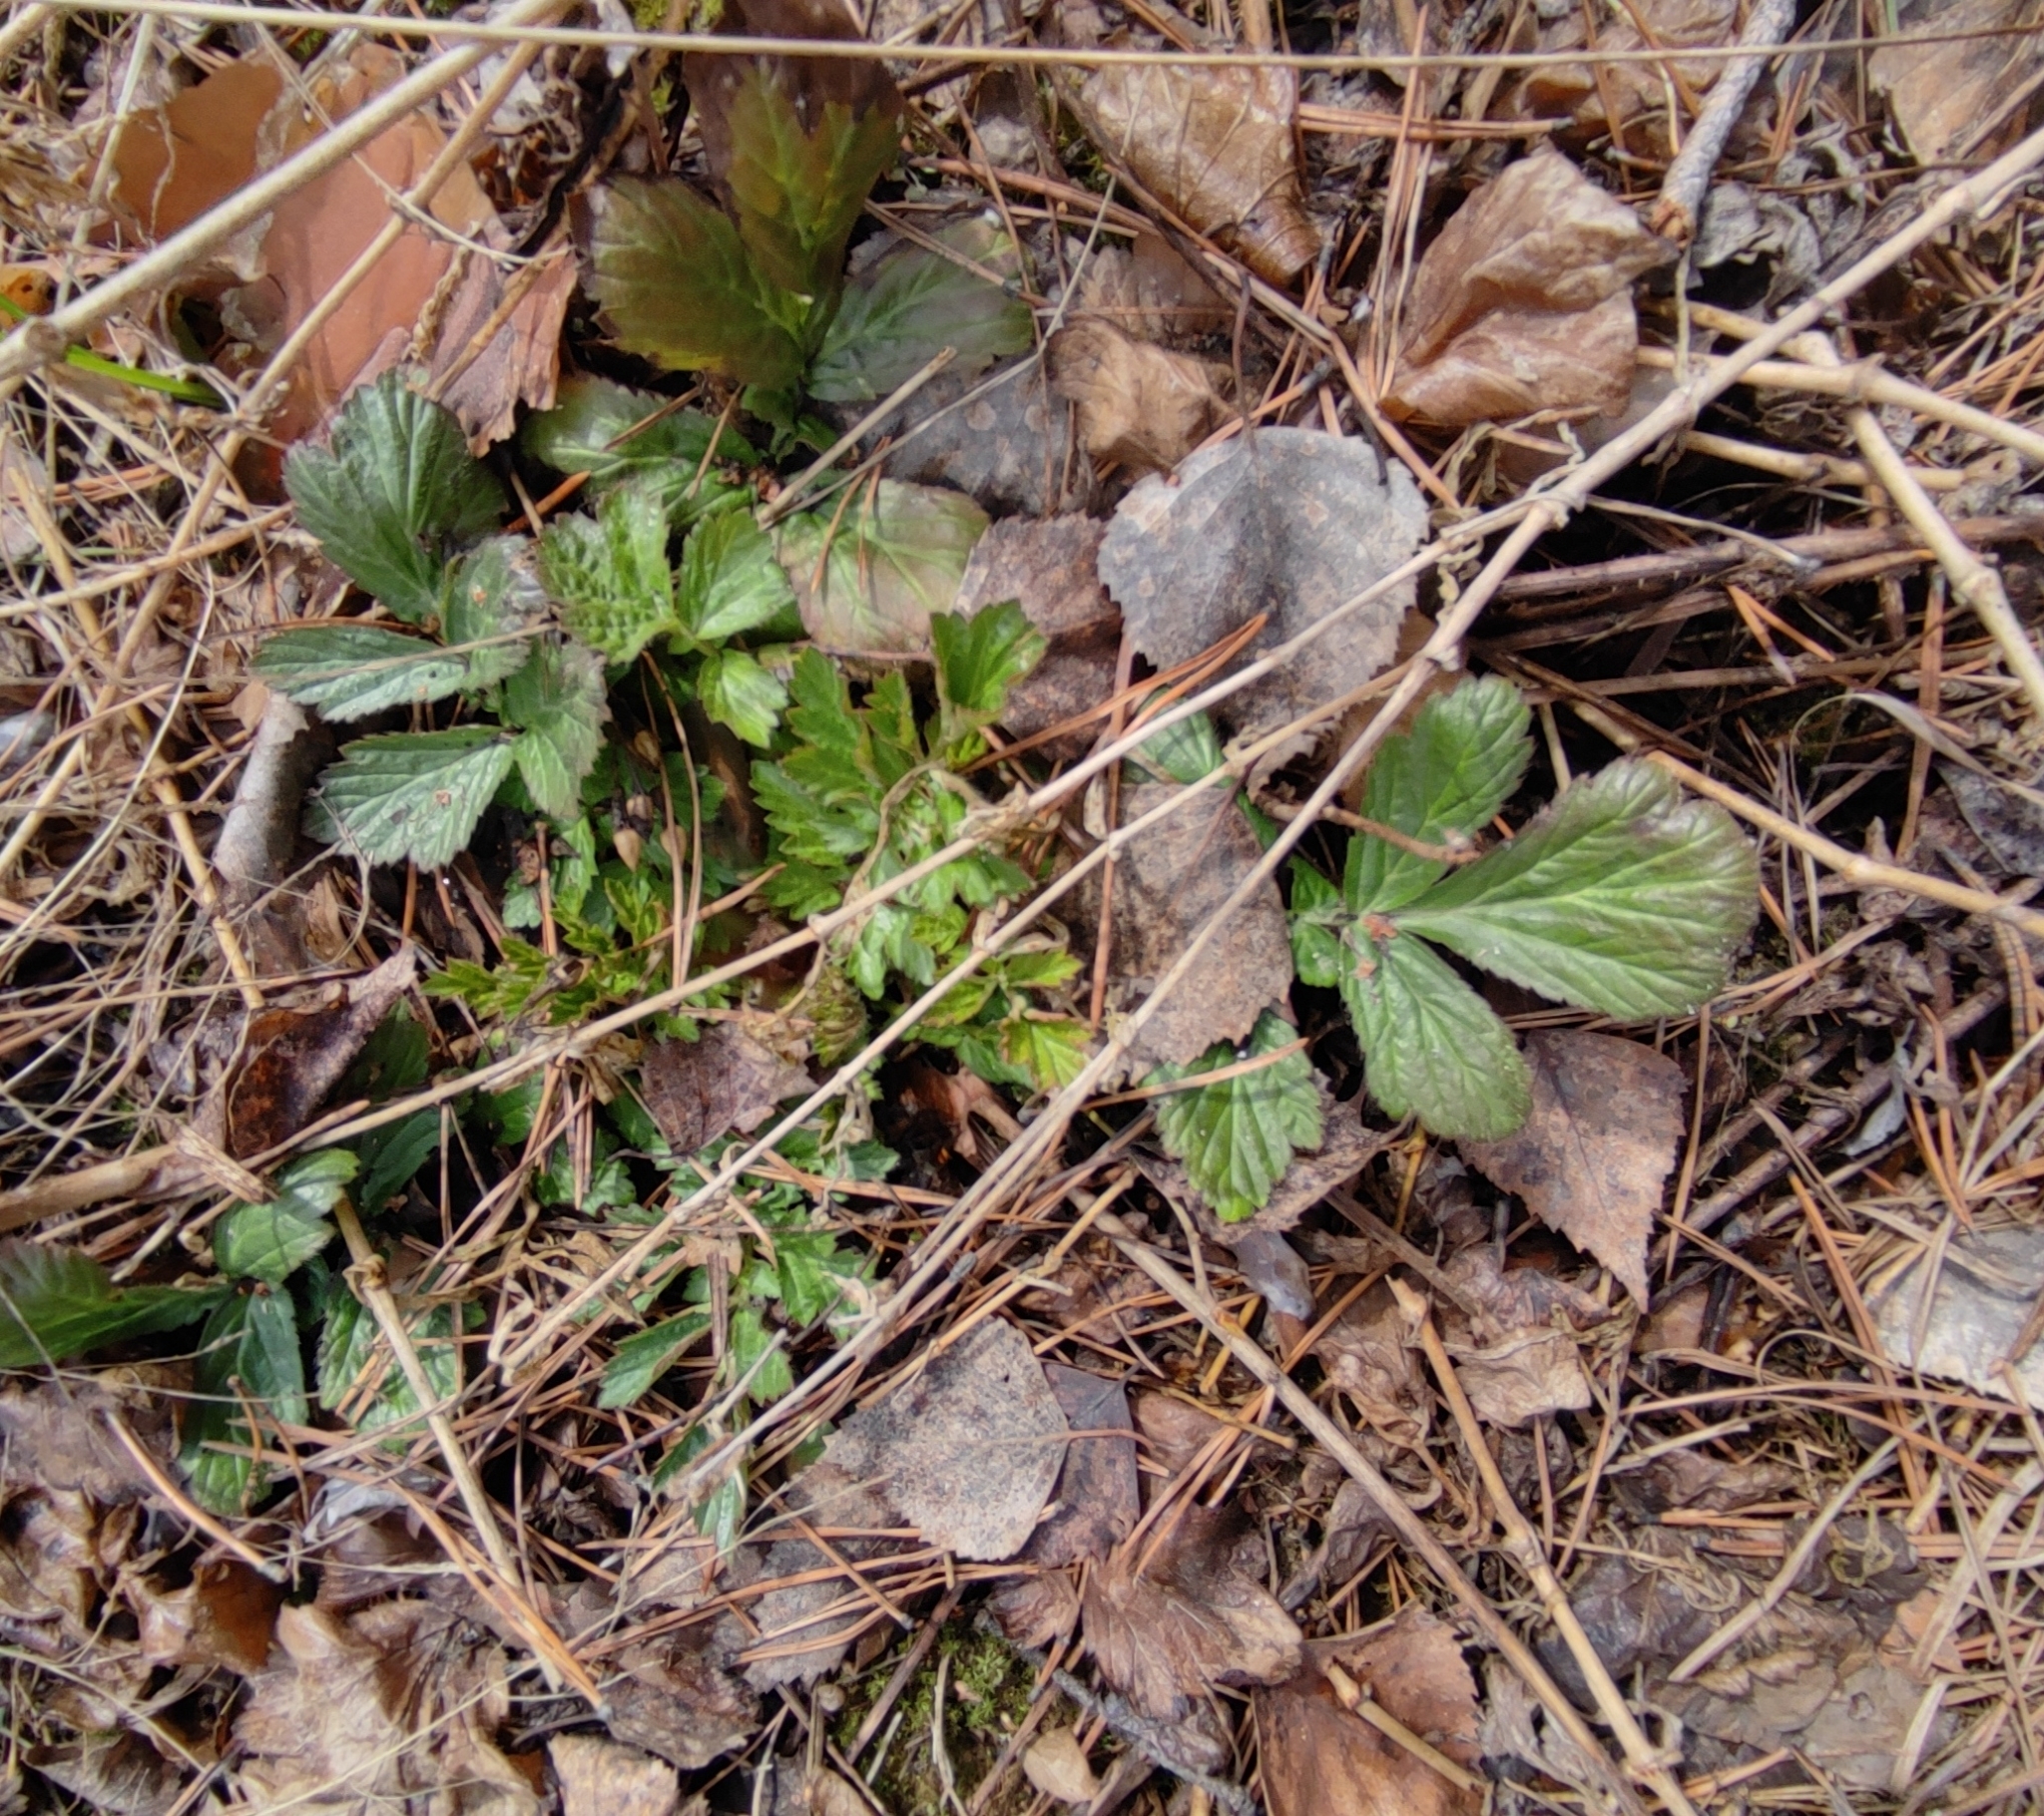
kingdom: Plantae
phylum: Tracheophyta
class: Magnoliopsida
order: Rosales
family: Rosaceae
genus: Geum
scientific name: Geum aleppicum
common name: Yellow avens
